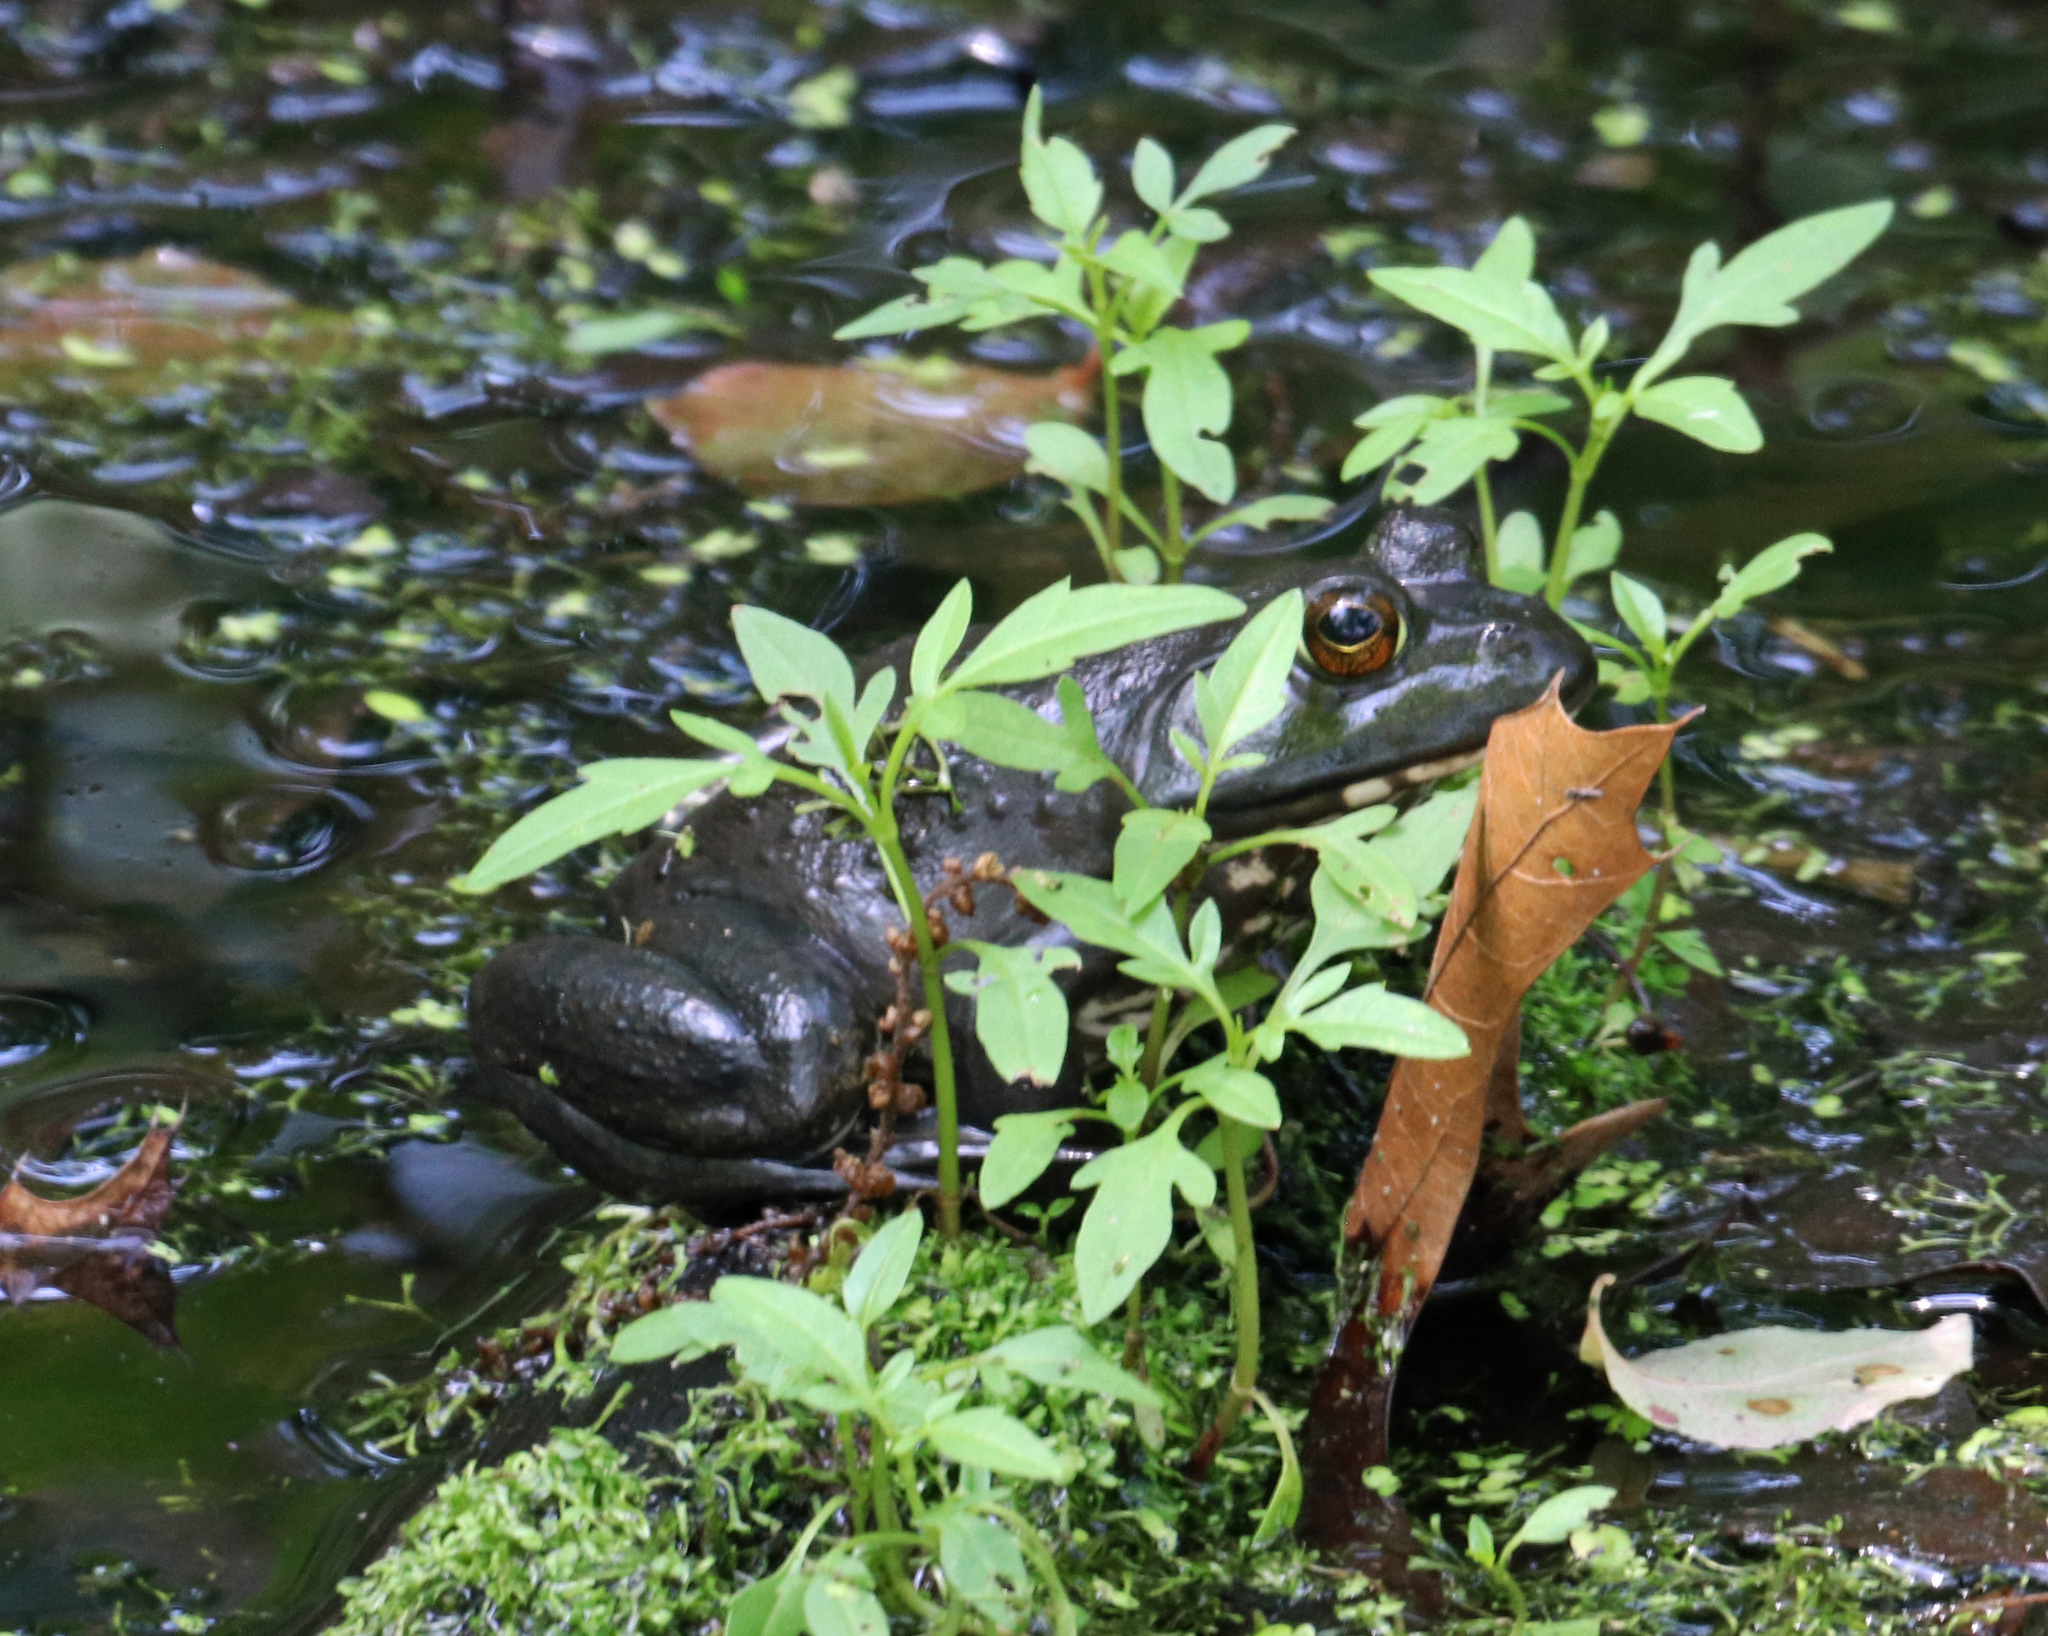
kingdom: Animalia
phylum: Chordata
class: Amphibia
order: Anura
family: Ranidae
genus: Lithobates
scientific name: Lithobates catesbeianus
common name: American bullfrog
